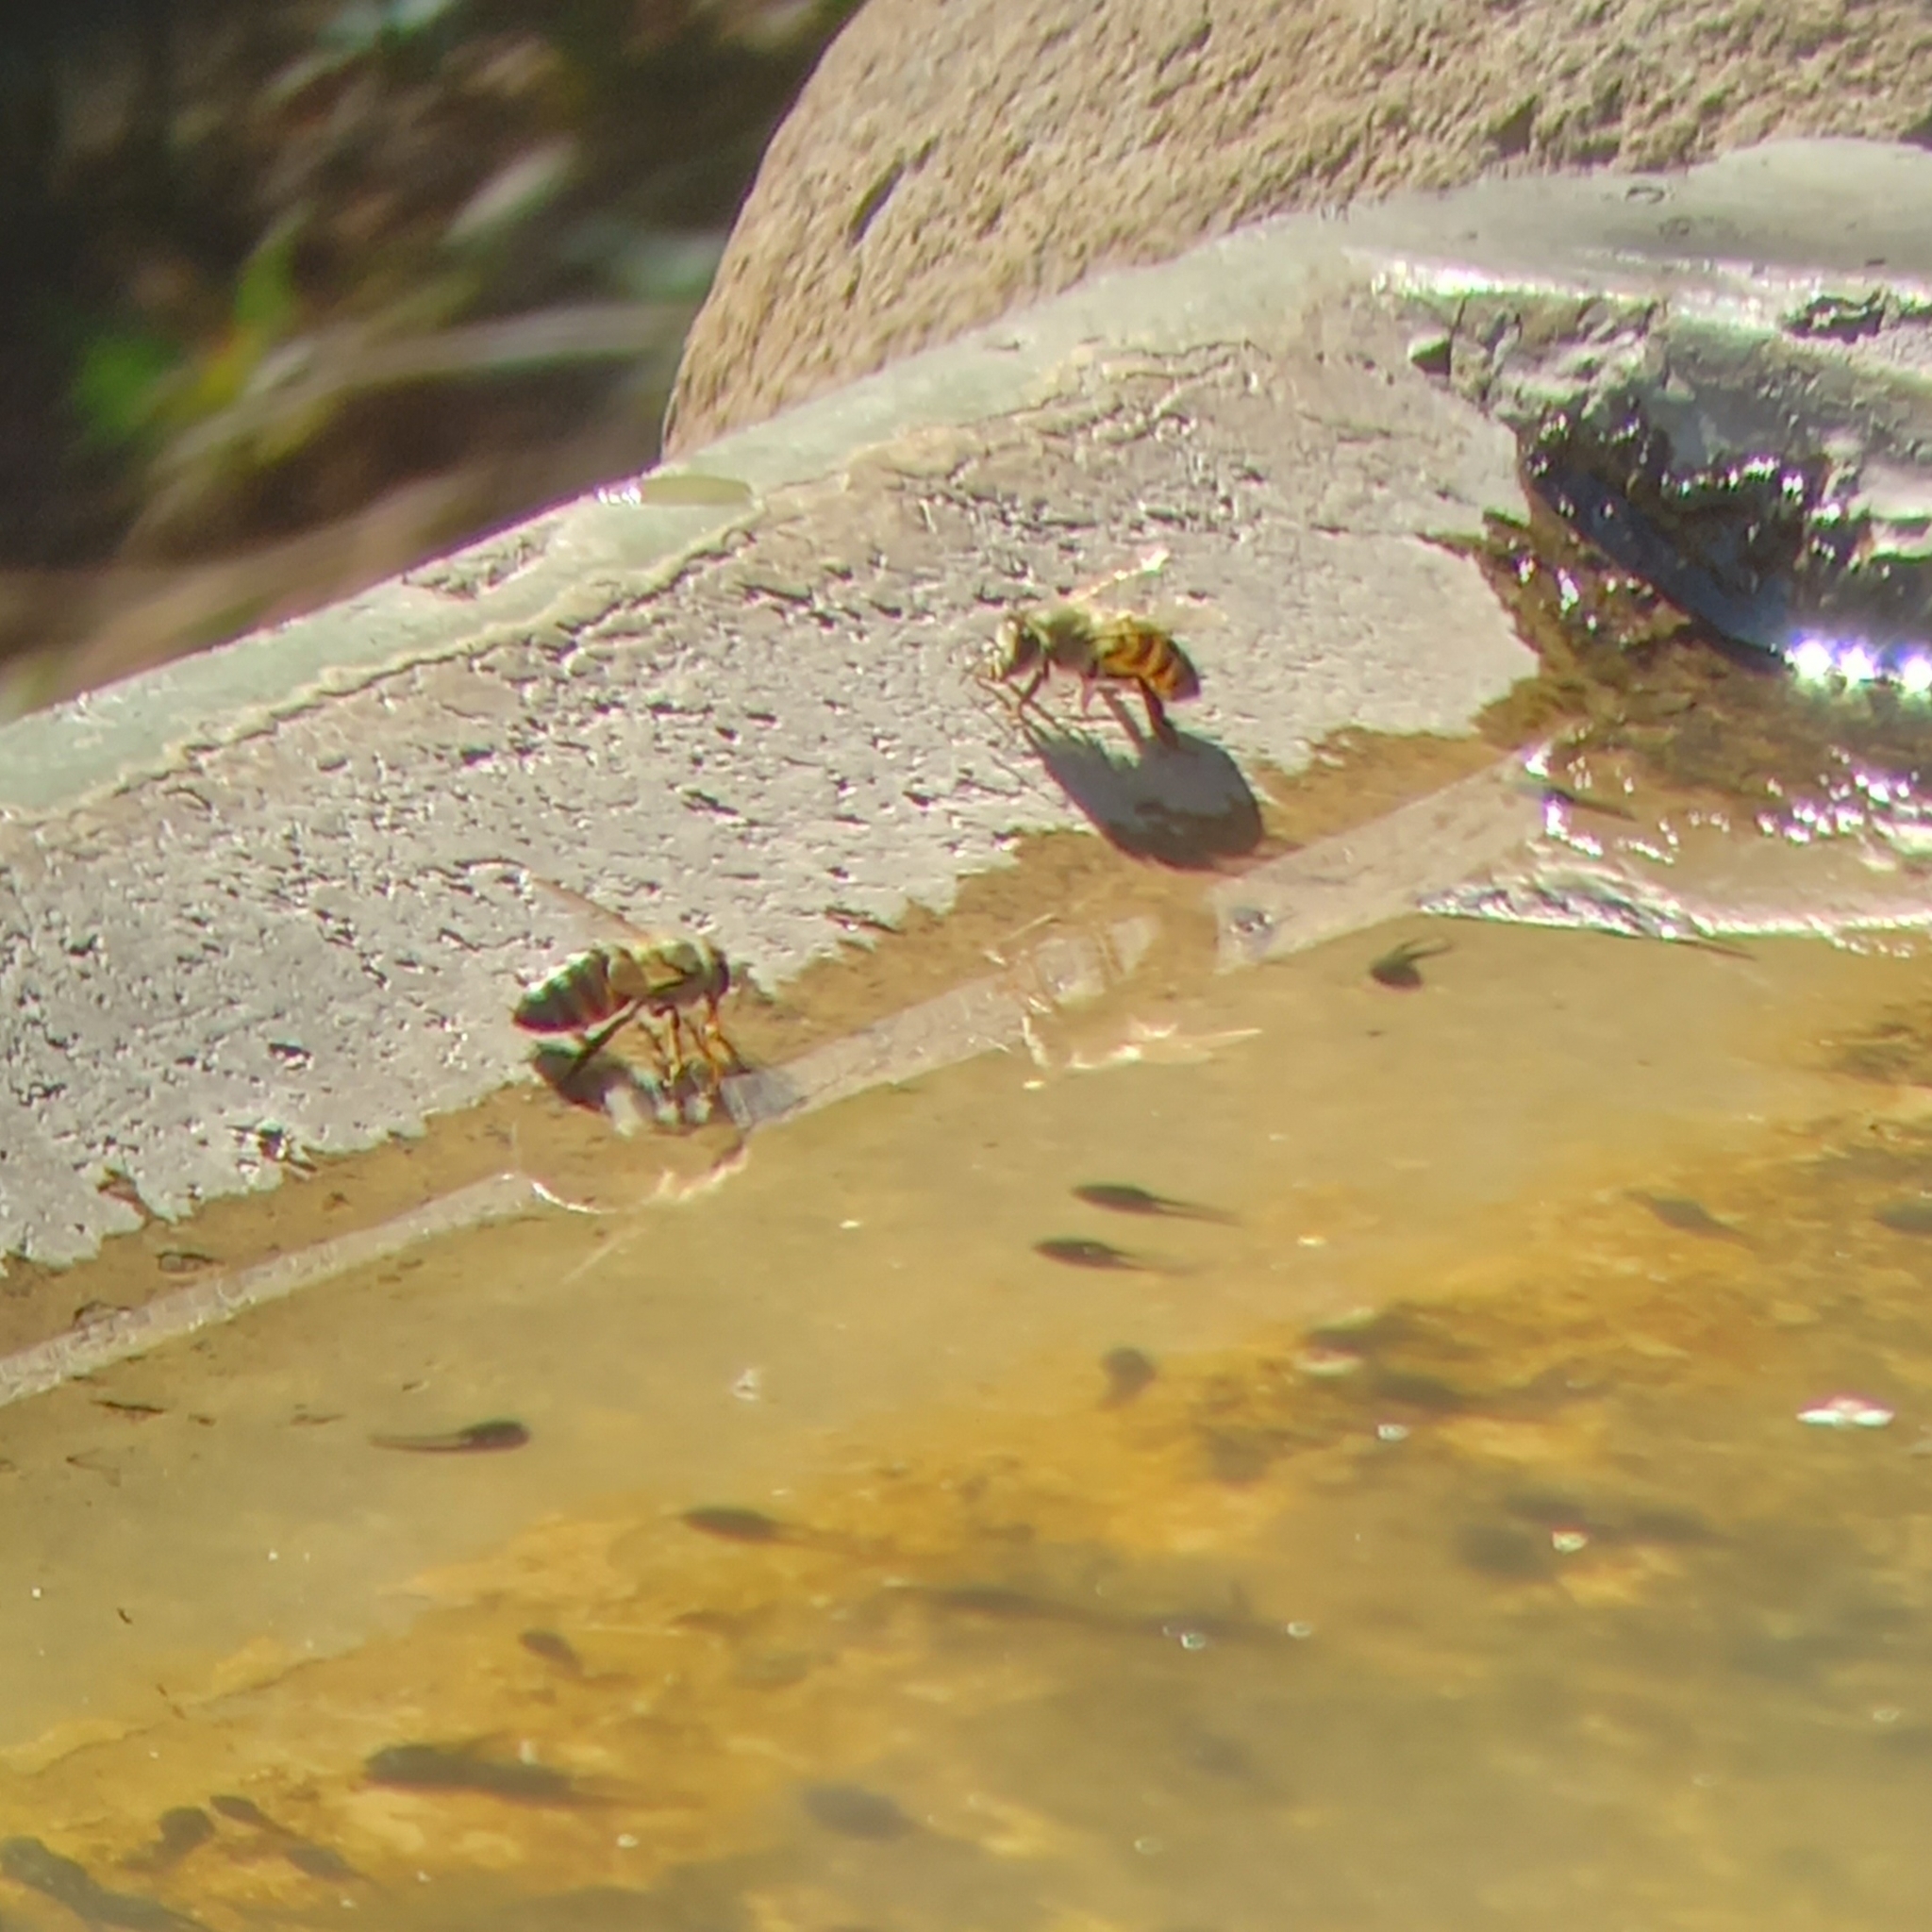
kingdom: Animalia
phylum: Arthropoda
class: Insecta
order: Hymenoptera
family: Apidae
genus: Apis
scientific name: Apis mellifera
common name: Honey bee
